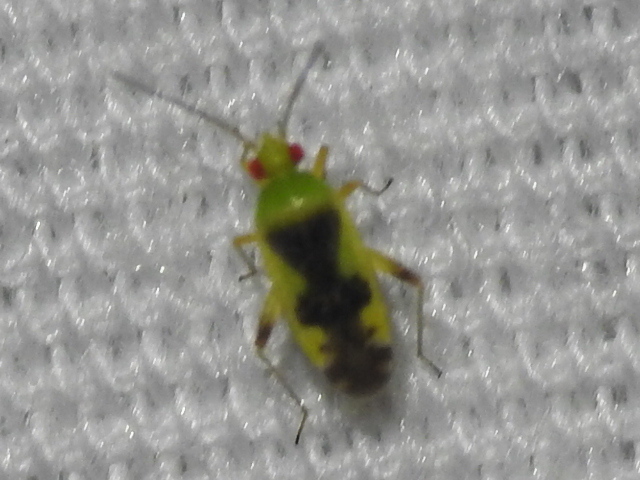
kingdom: Animalia
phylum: Arthropoda
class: Insecta
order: Hemiptera
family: Miridae
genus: Reuteroscopus
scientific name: Reuteroscopus femoralis
